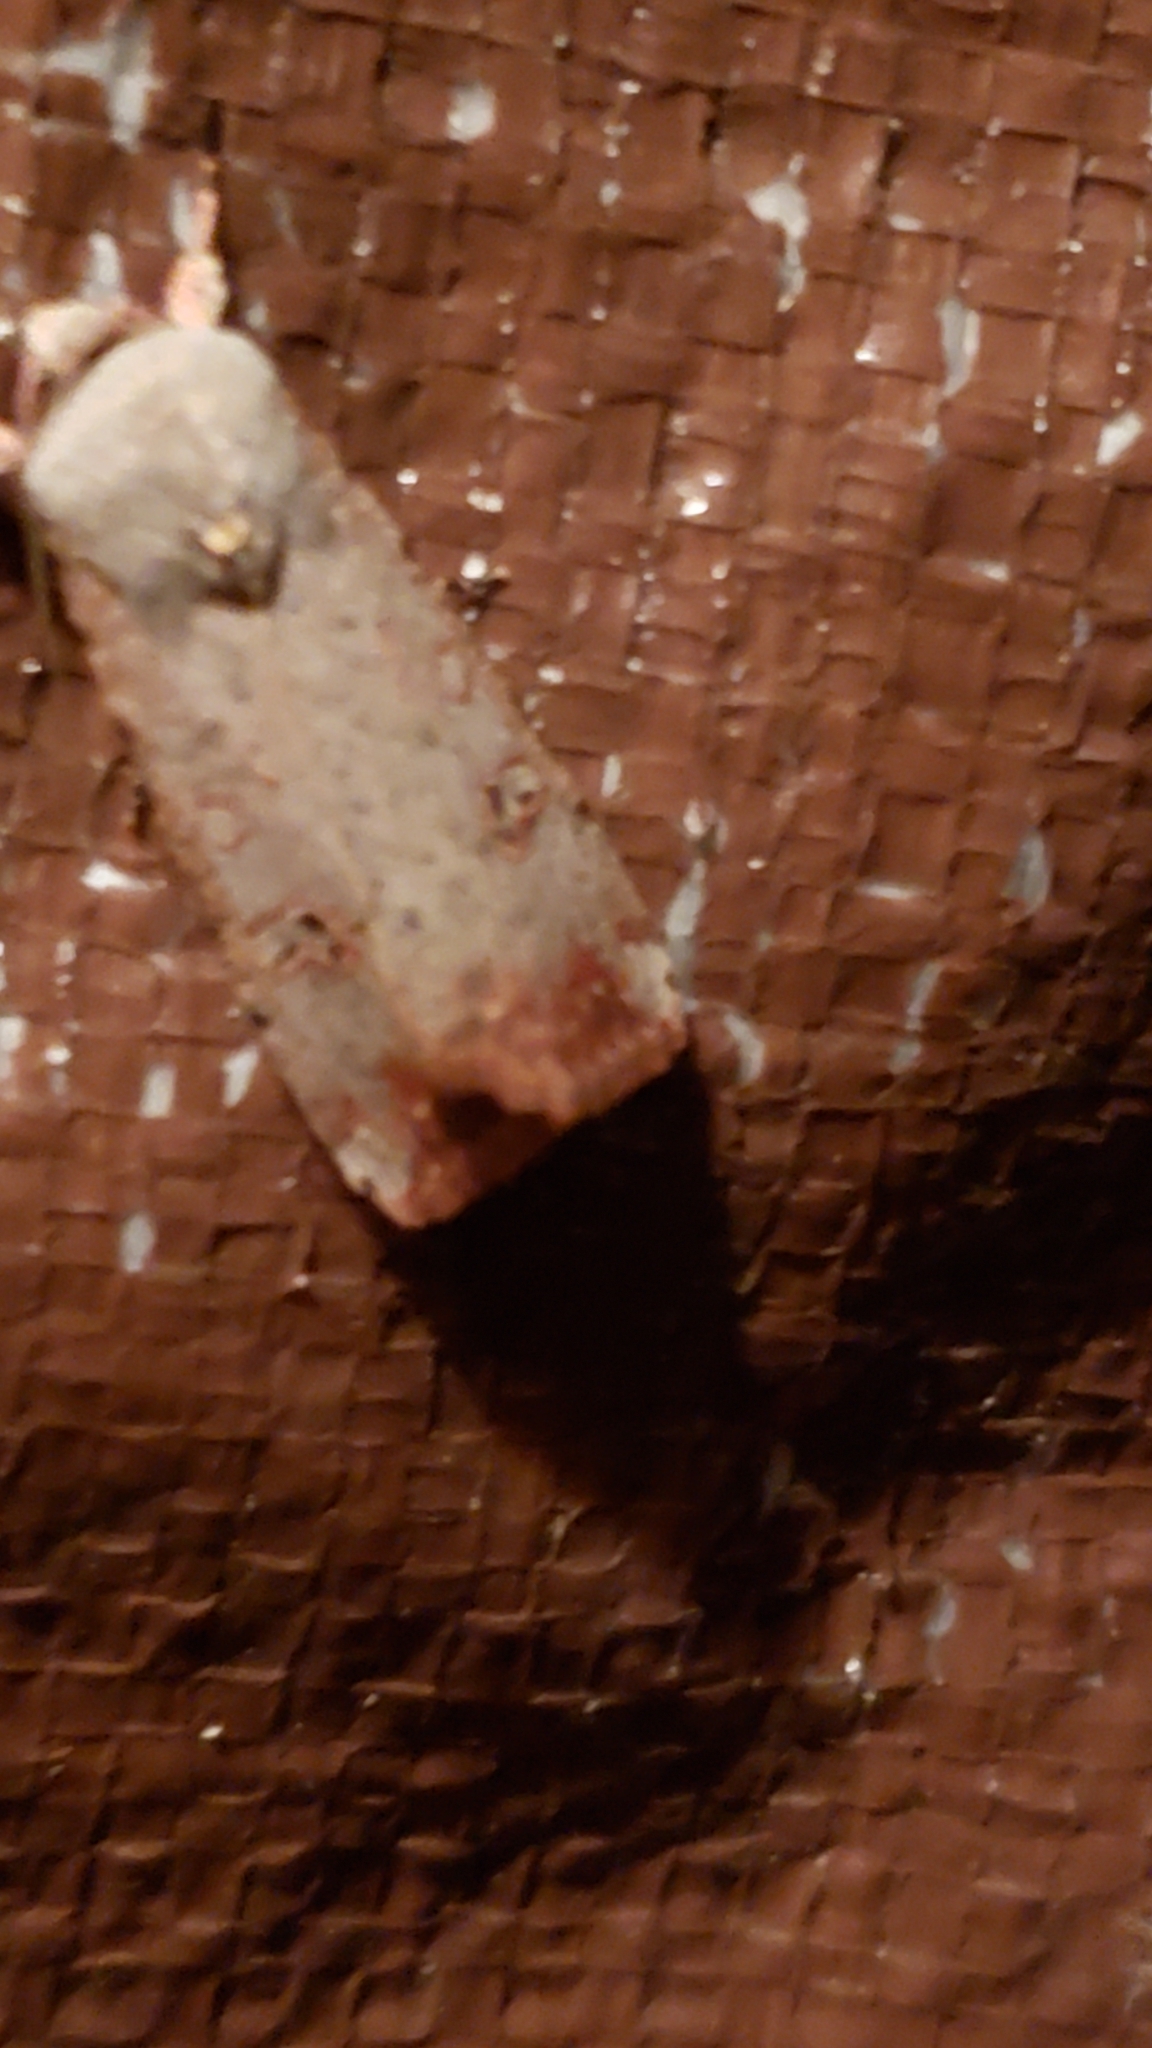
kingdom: Animalia
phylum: Arthropoda
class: Insecta
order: Lepidoptera
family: Noctuidae
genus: Anicla
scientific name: Anicla infecta
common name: Green cutworm
